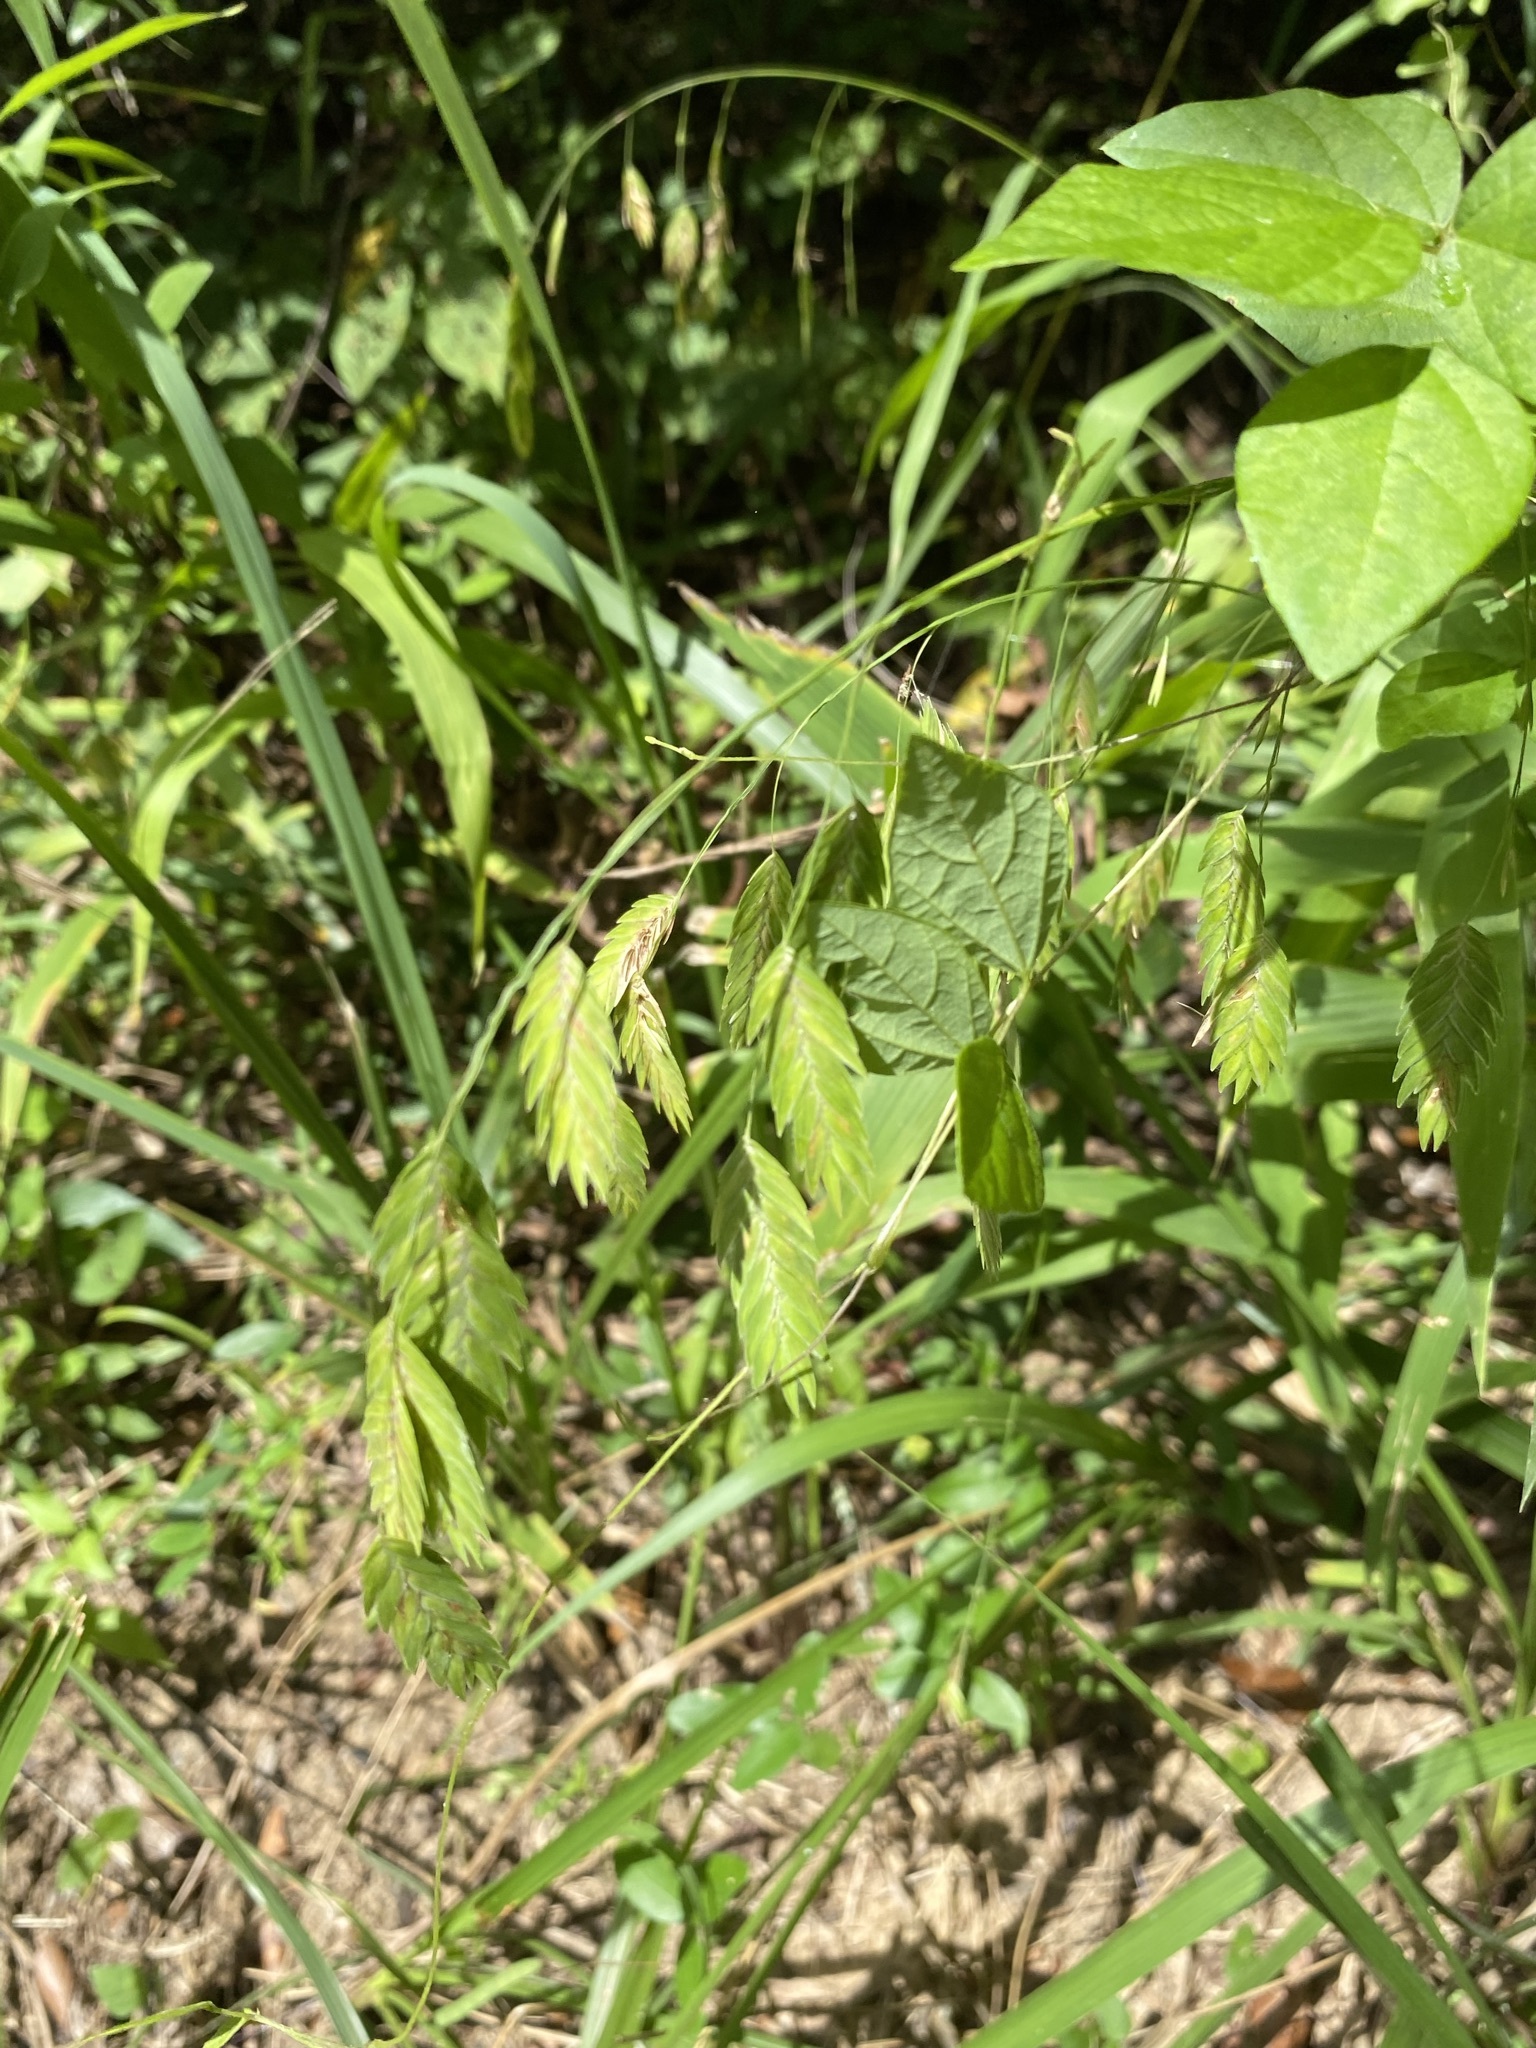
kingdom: Plantae
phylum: Tracheophyta
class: Liliopsida
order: Poales
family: Poaceae
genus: Chasmanthium
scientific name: Chasmanthium latifolium
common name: Broad-leaved chasmanthium
